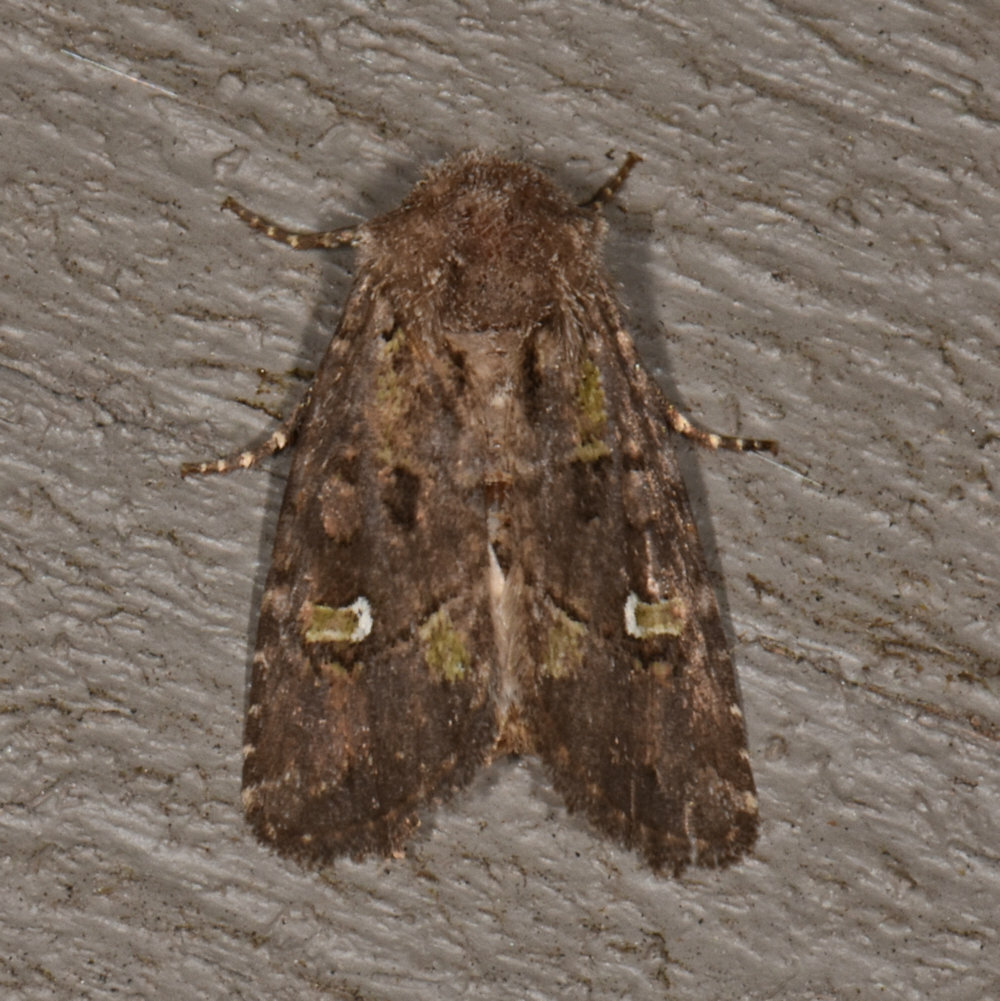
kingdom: Animalia
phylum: Arthropoda
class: Insecta
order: Lepidoptera
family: Noctuidae
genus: Lacinipolia
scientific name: Lacinipolia renigera
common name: Kidney-spotted minor
